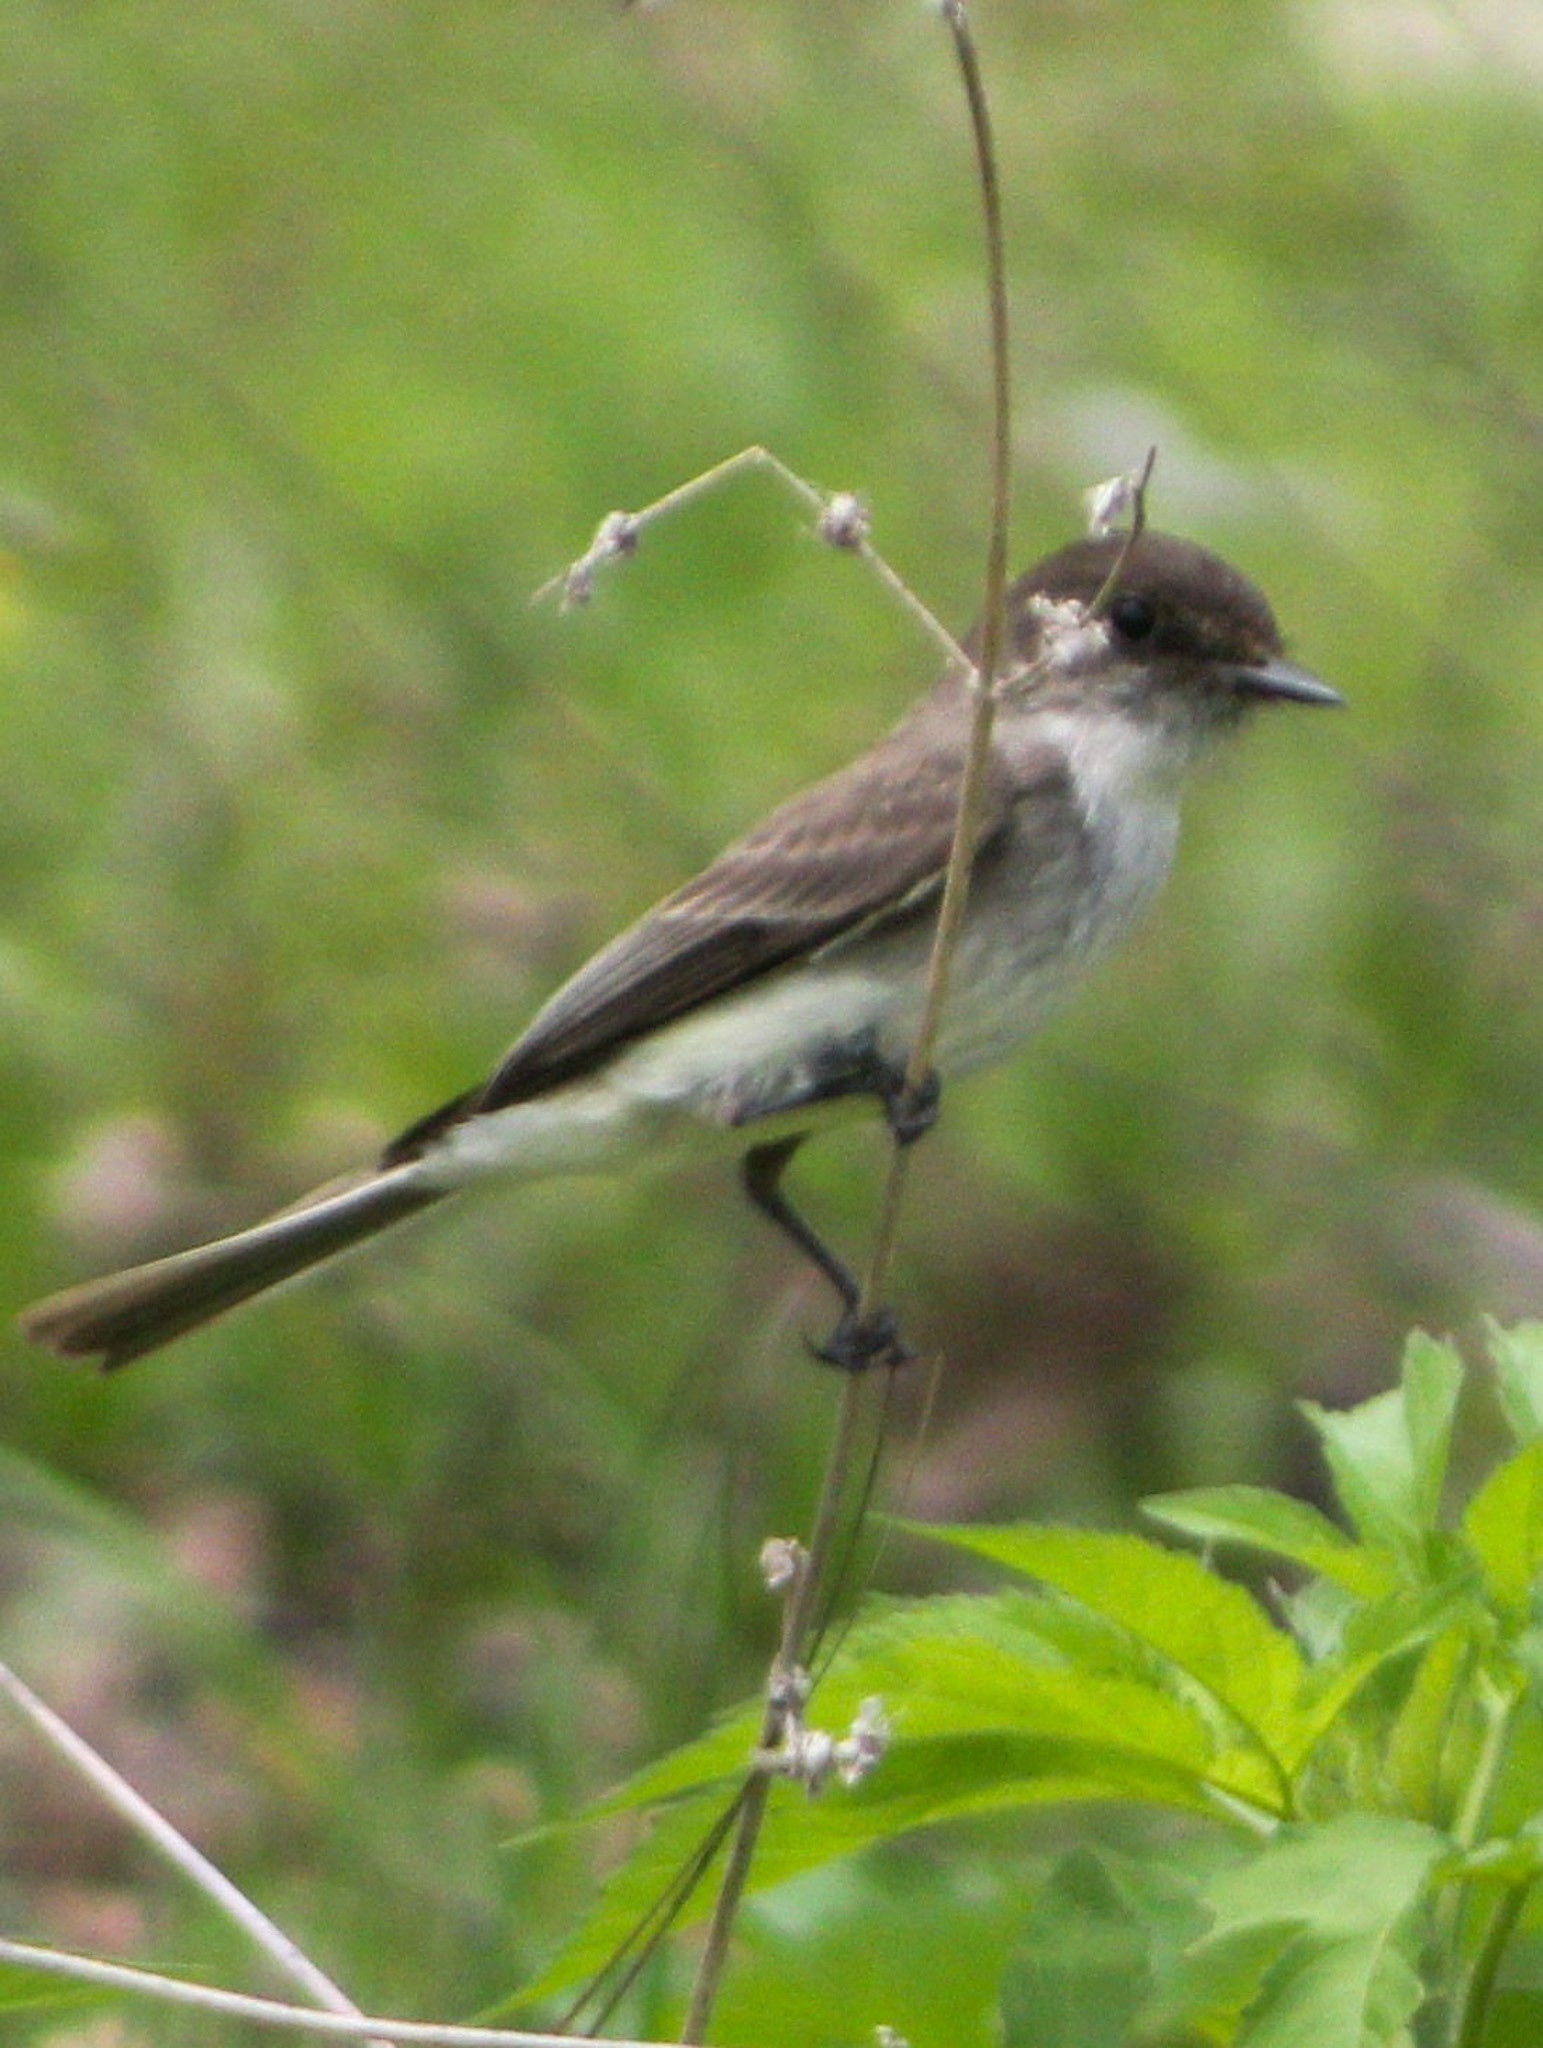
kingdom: Animalia
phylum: Chordata
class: Aves
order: Passeriformes
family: Tyrannidae
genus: Sayornis
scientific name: Sayornis phoebe
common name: Eastern phoebe
